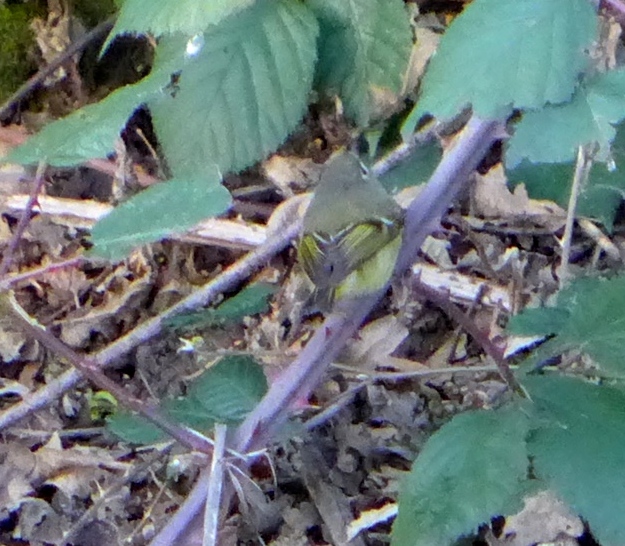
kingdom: Animalia
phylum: Chordata
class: Aves
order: Passeriformes
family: Regulidae
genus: Regulus
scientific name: Regulus calendula
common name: Ruby-crowned kinglet
